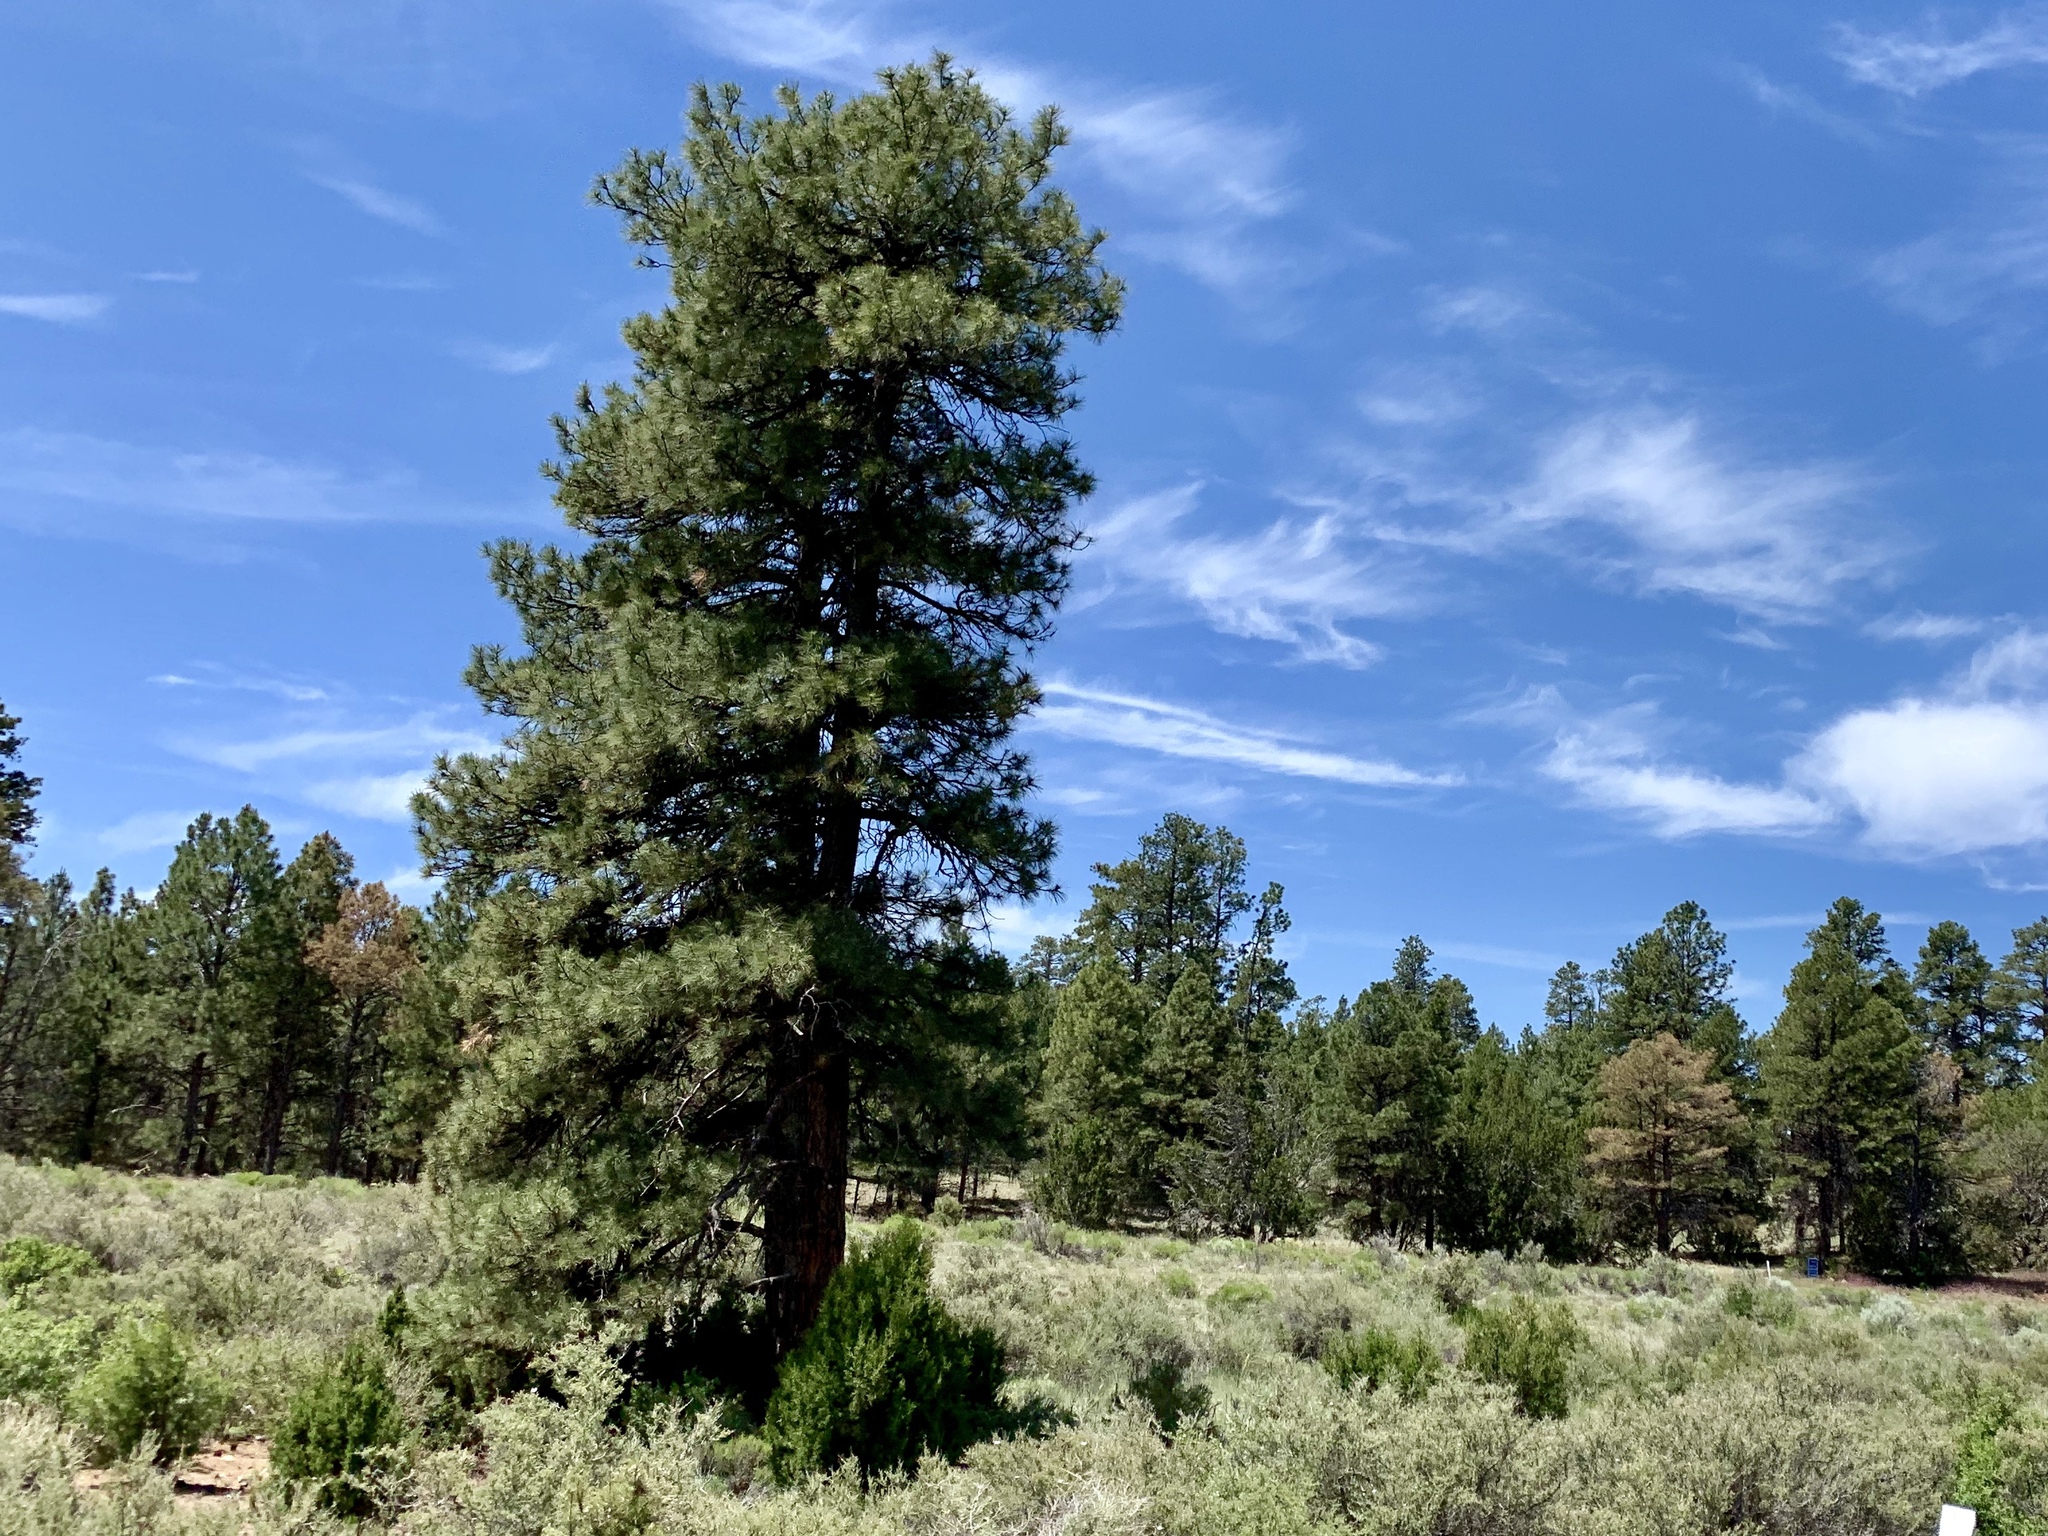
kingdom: Plantae
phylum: Tracheophyta
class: Pinopsida
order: Pinales
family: Pinaceae
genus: Pinus
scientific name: Pinus ponderosa
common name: Western yellow-pine
